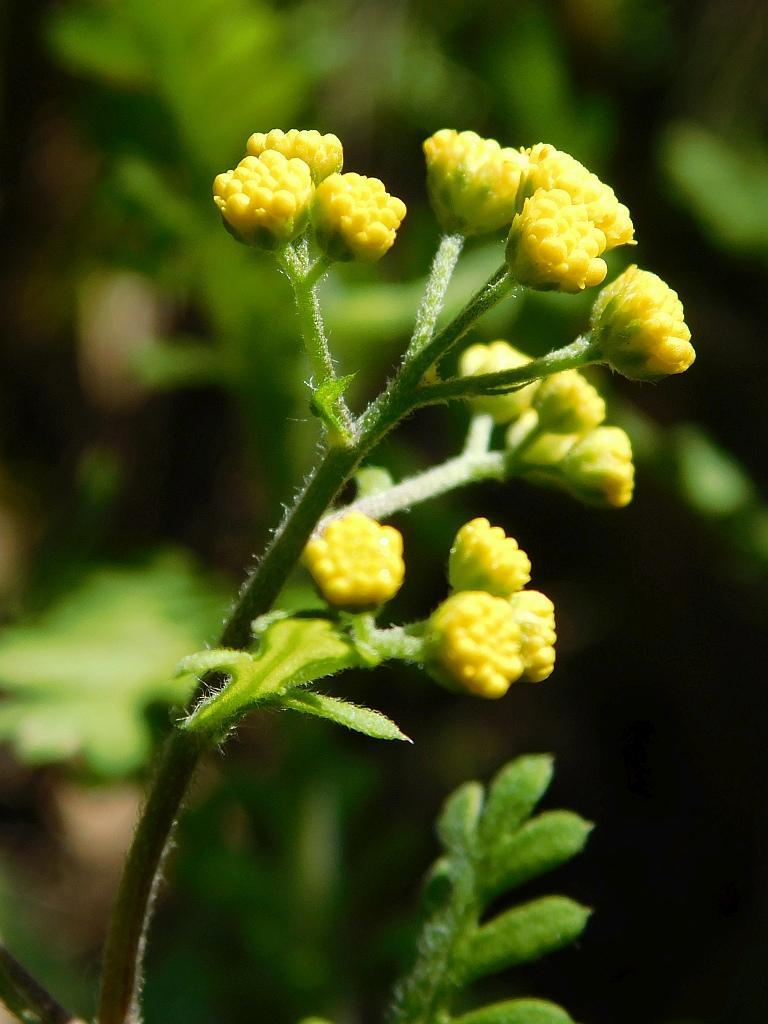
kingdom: Plantae
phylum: Tracheophyta
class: Magnoliopsida
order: Asterales
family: Asteraceae
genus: Hippia
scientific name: Hippia frutescens
